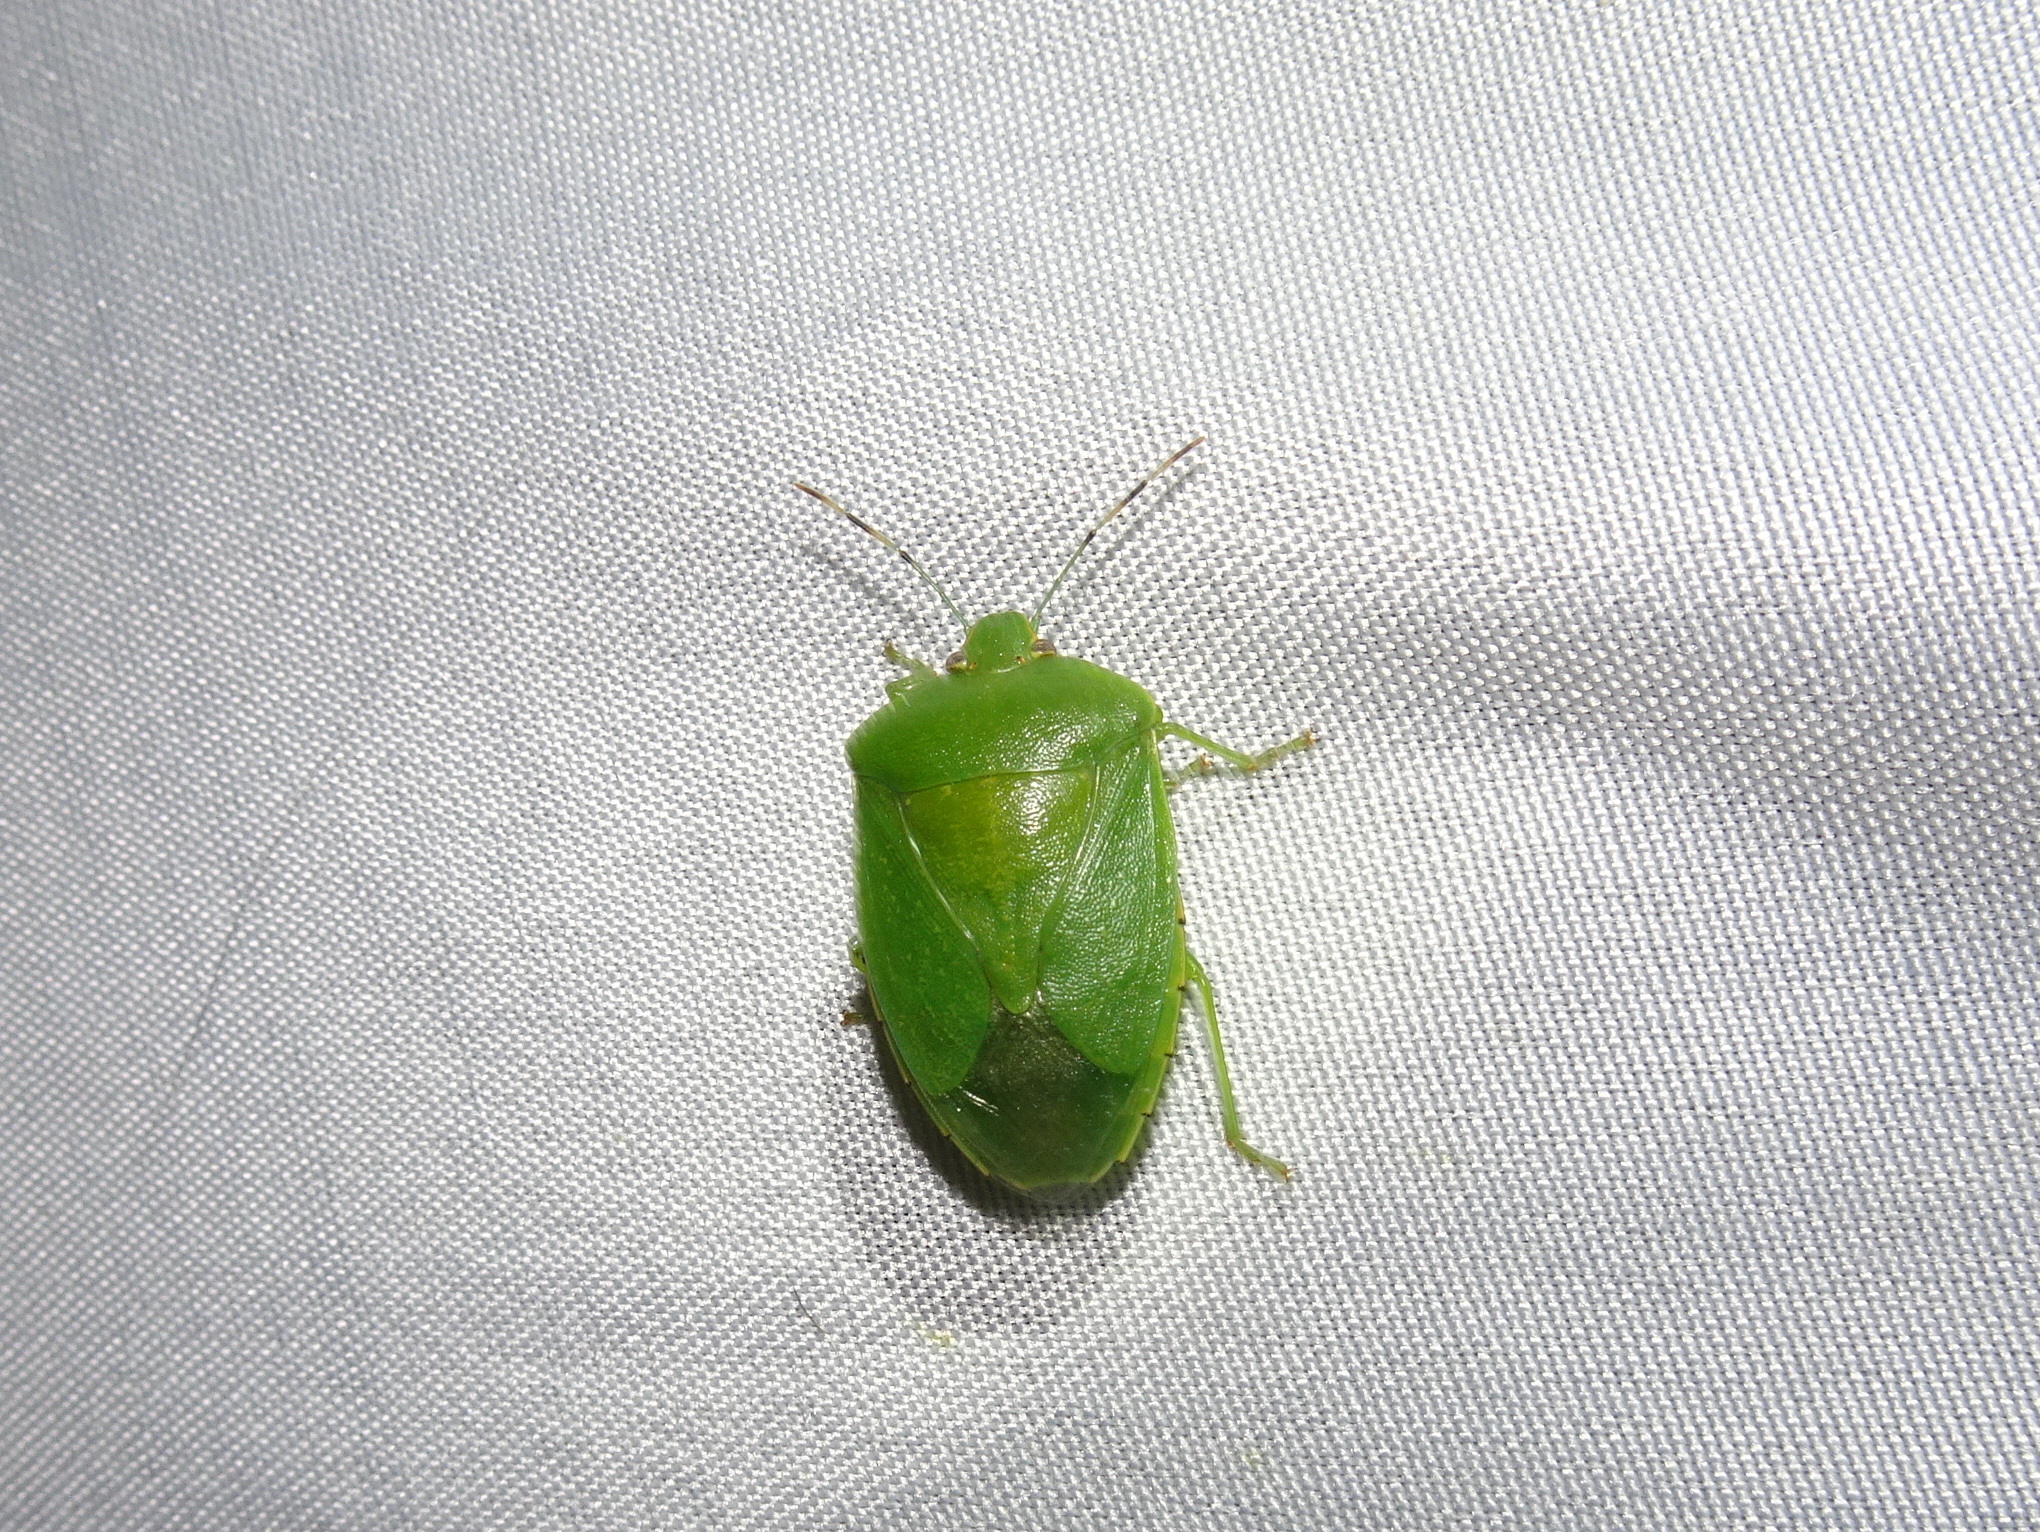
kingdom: Animalia
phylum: Arthropoda
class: Insecta
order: Hemiptera
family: Pentatomidae
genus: Chinavia
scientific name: Chinavia hilaris
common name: Green stink bug
